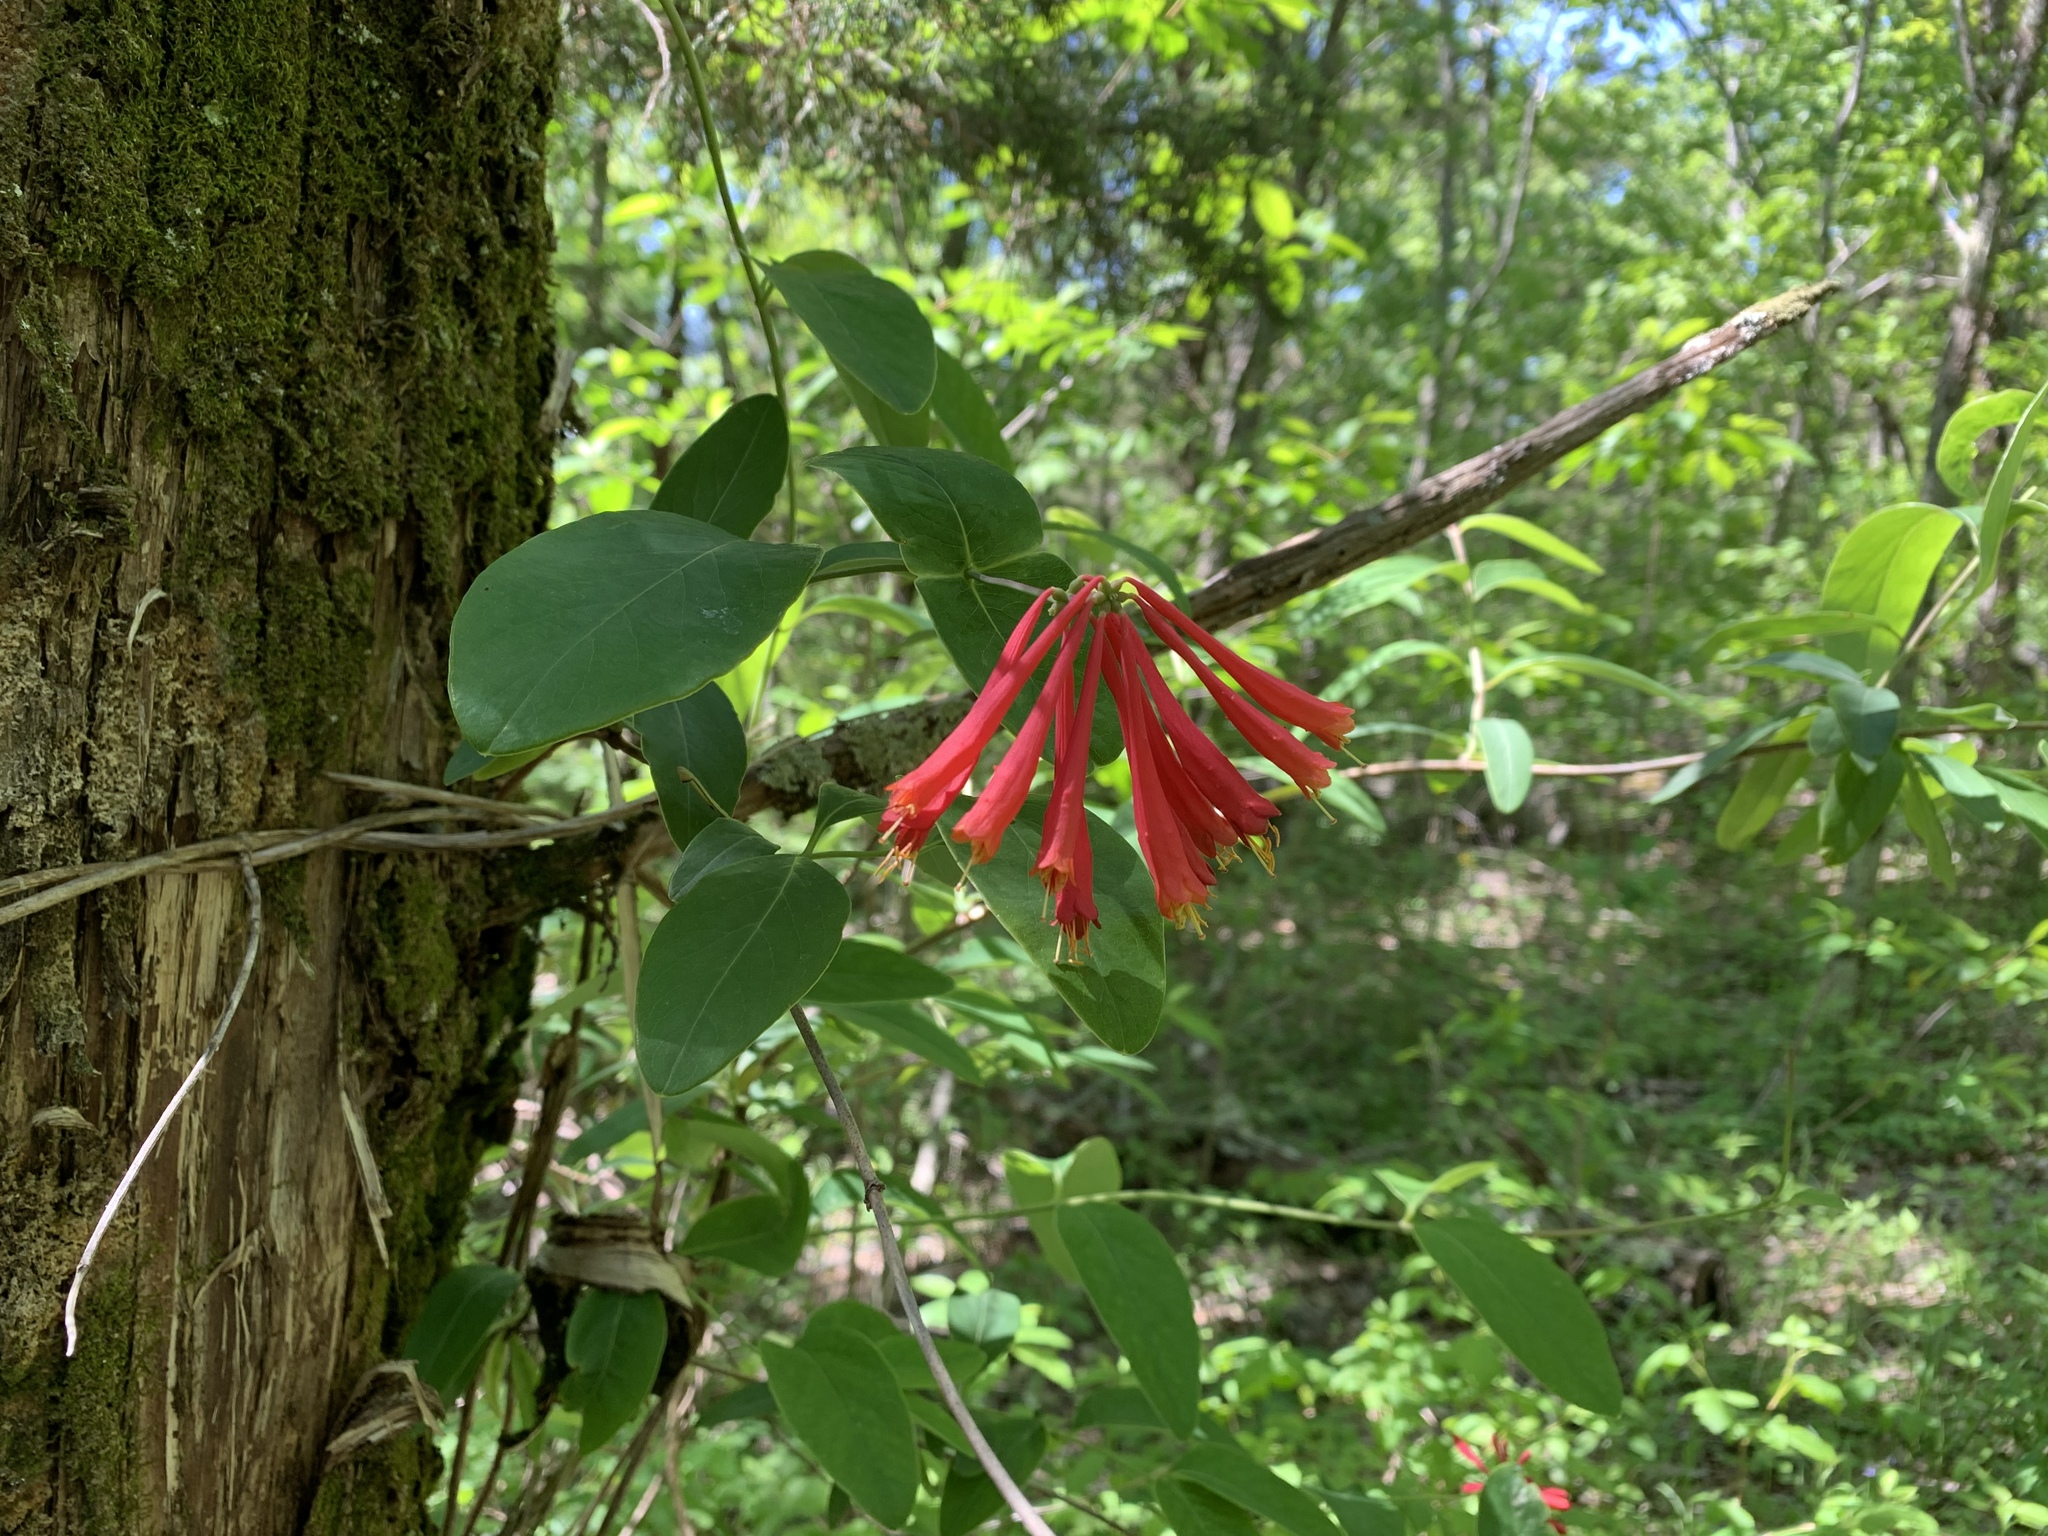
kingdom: Plantae
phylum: Tracheophyta
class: Magnoliopsida
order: Dipsacales
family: Caprifoliaceae
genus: Lonicera
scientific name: Lonicera sempervirens
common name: Coral honeysuckle
